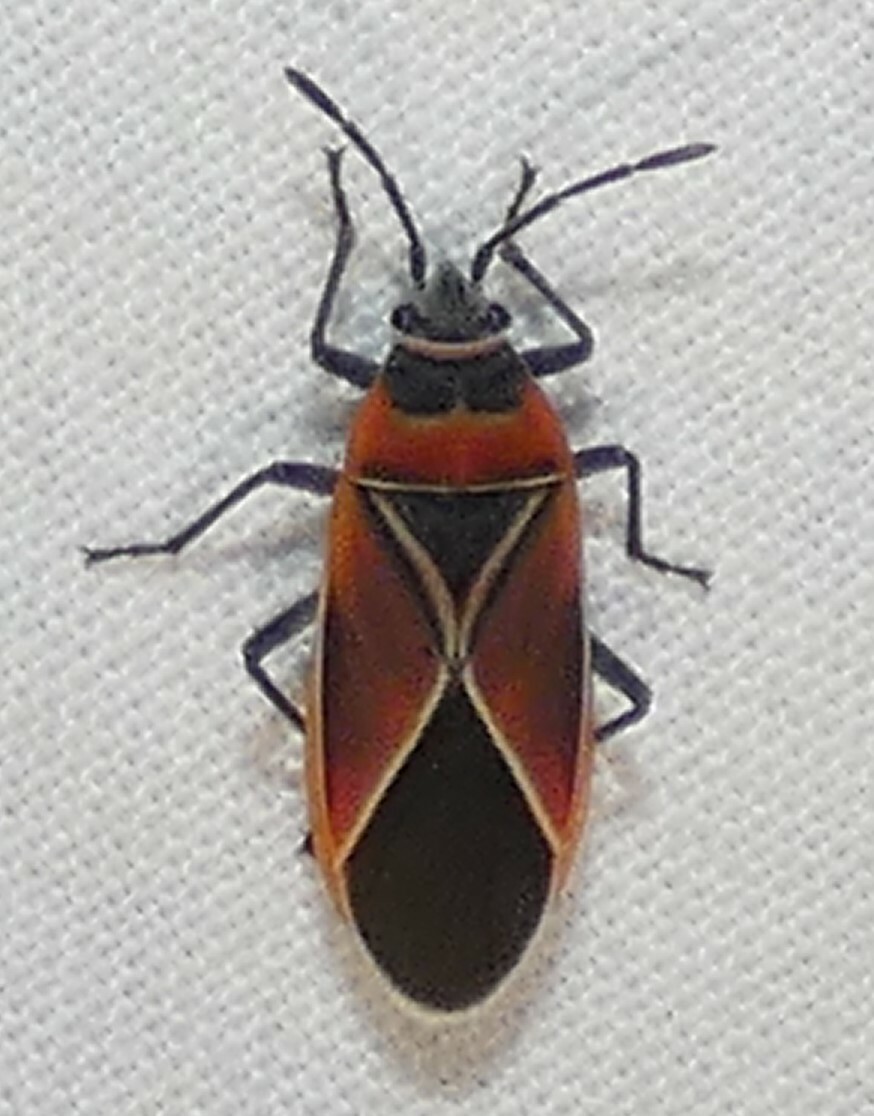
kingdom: Animalia
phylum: Arthropoda
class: Insecta
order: Hemiptera
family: Lygaeidae
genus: Neacoryphus
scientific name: Neacoryphus bicrucis
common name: Lygaeid bug
